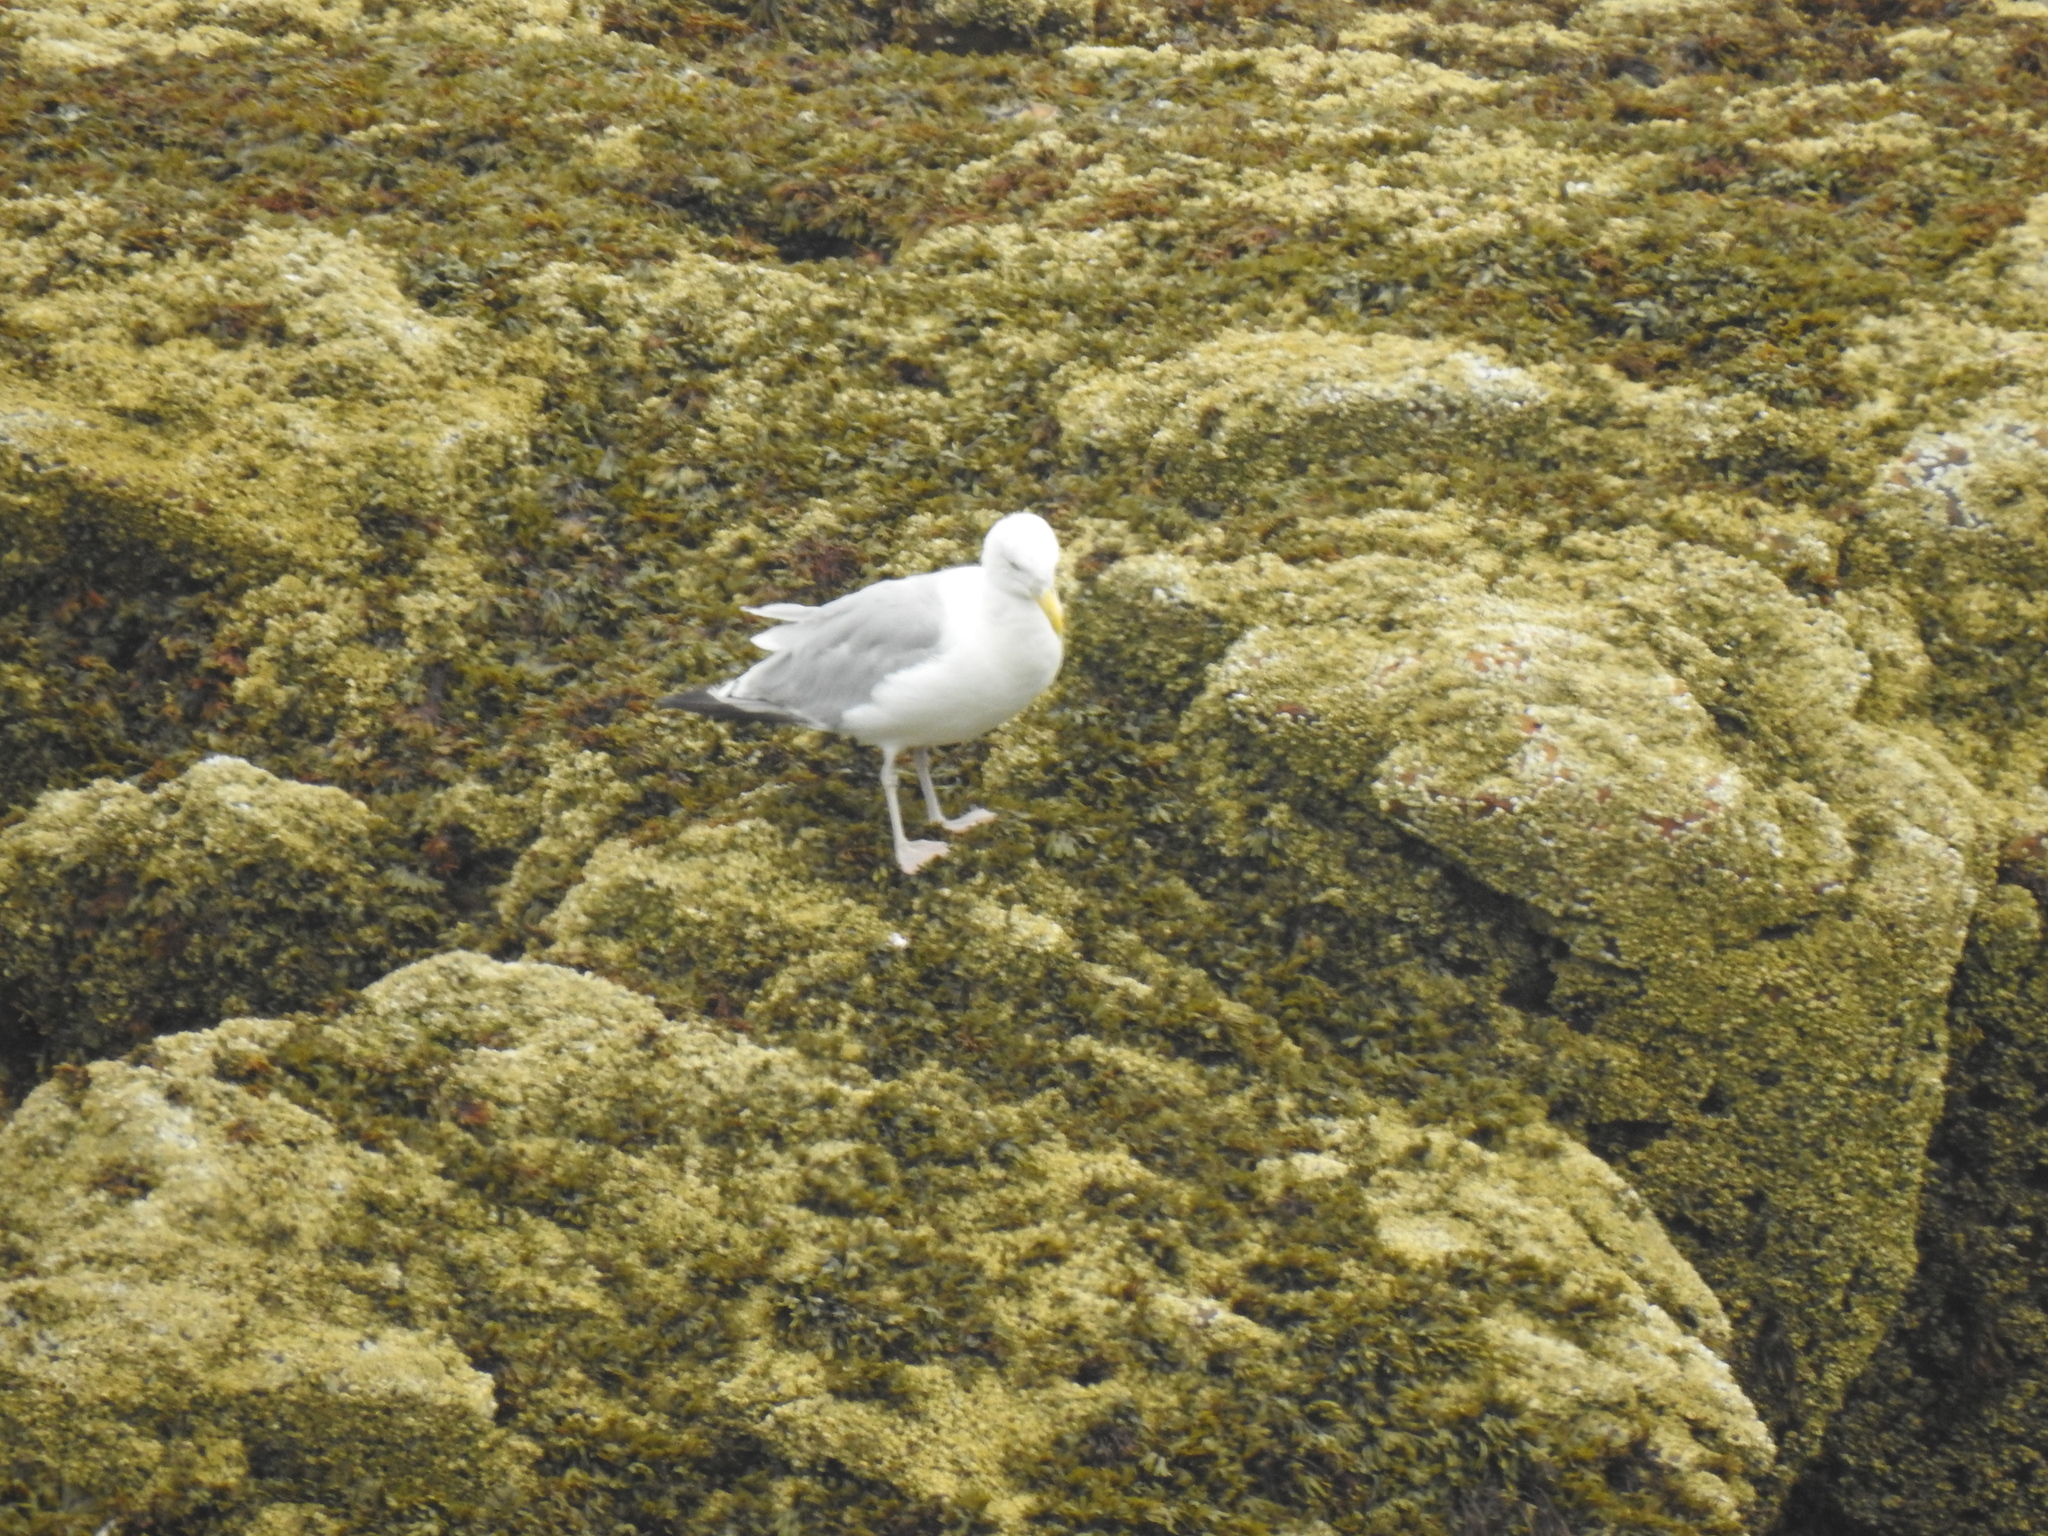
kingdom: Animalia
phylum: Chordata
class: Aves
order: Charadriiformes
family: Laridae
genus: Larus
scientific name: Larus argentatus
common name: Herring gull
